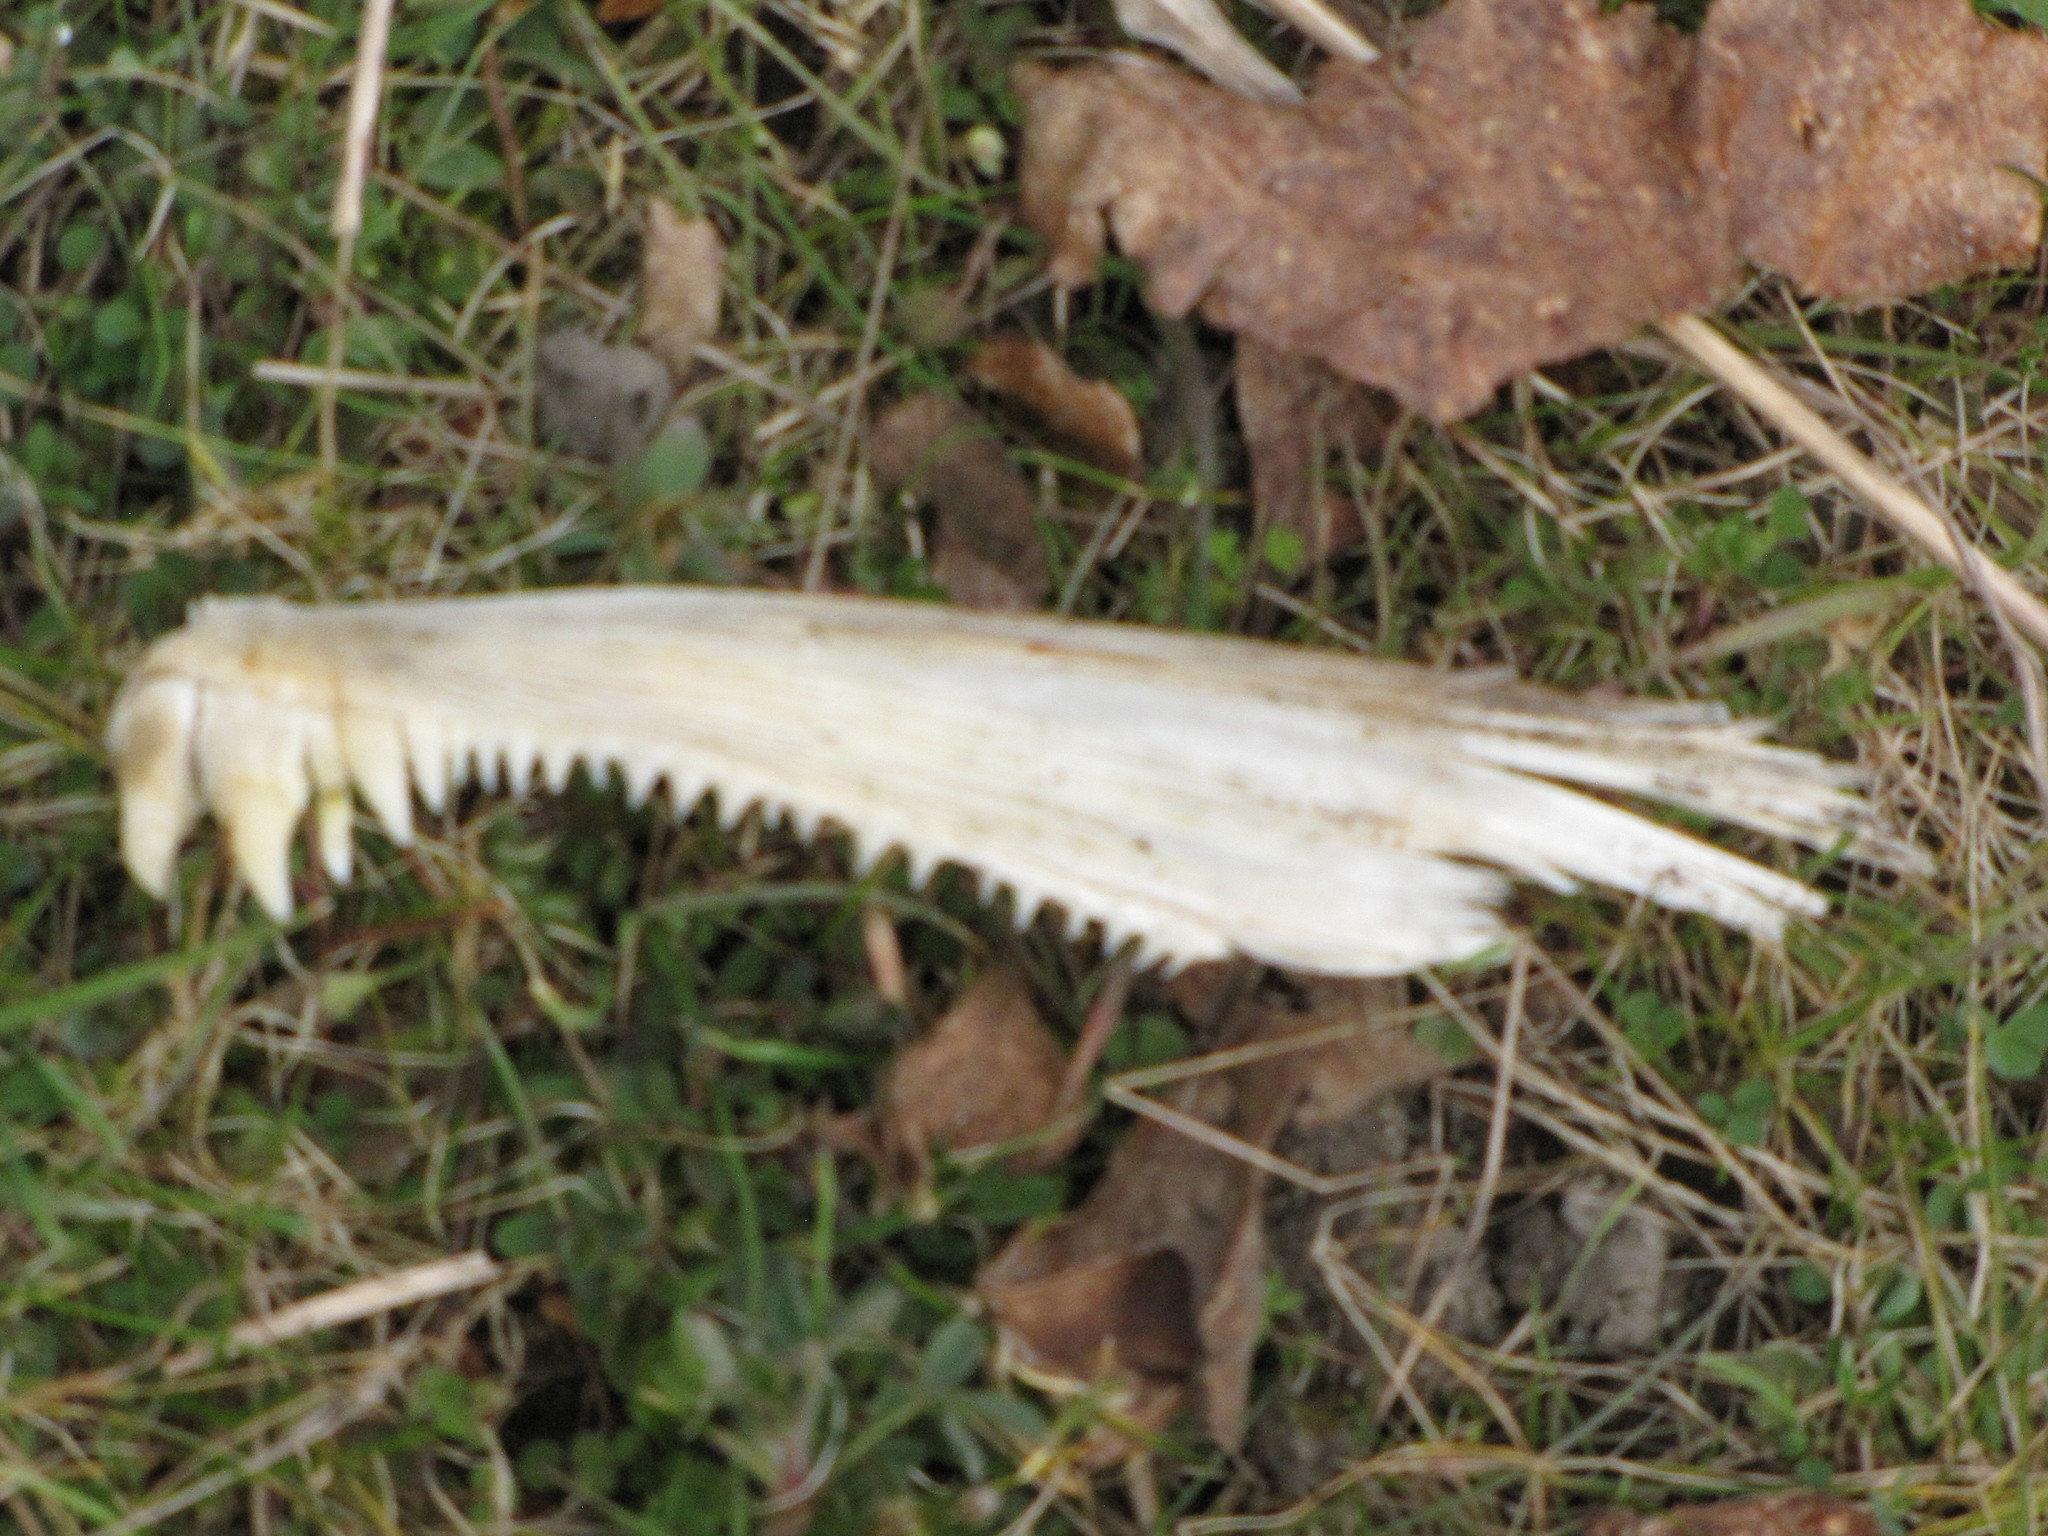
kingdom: Animalia
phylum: Chordata
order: Salmoniformes
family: Salmonidae
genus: Oncorhynchus
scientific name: Oncorhynchus keta
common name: Chum salmon
